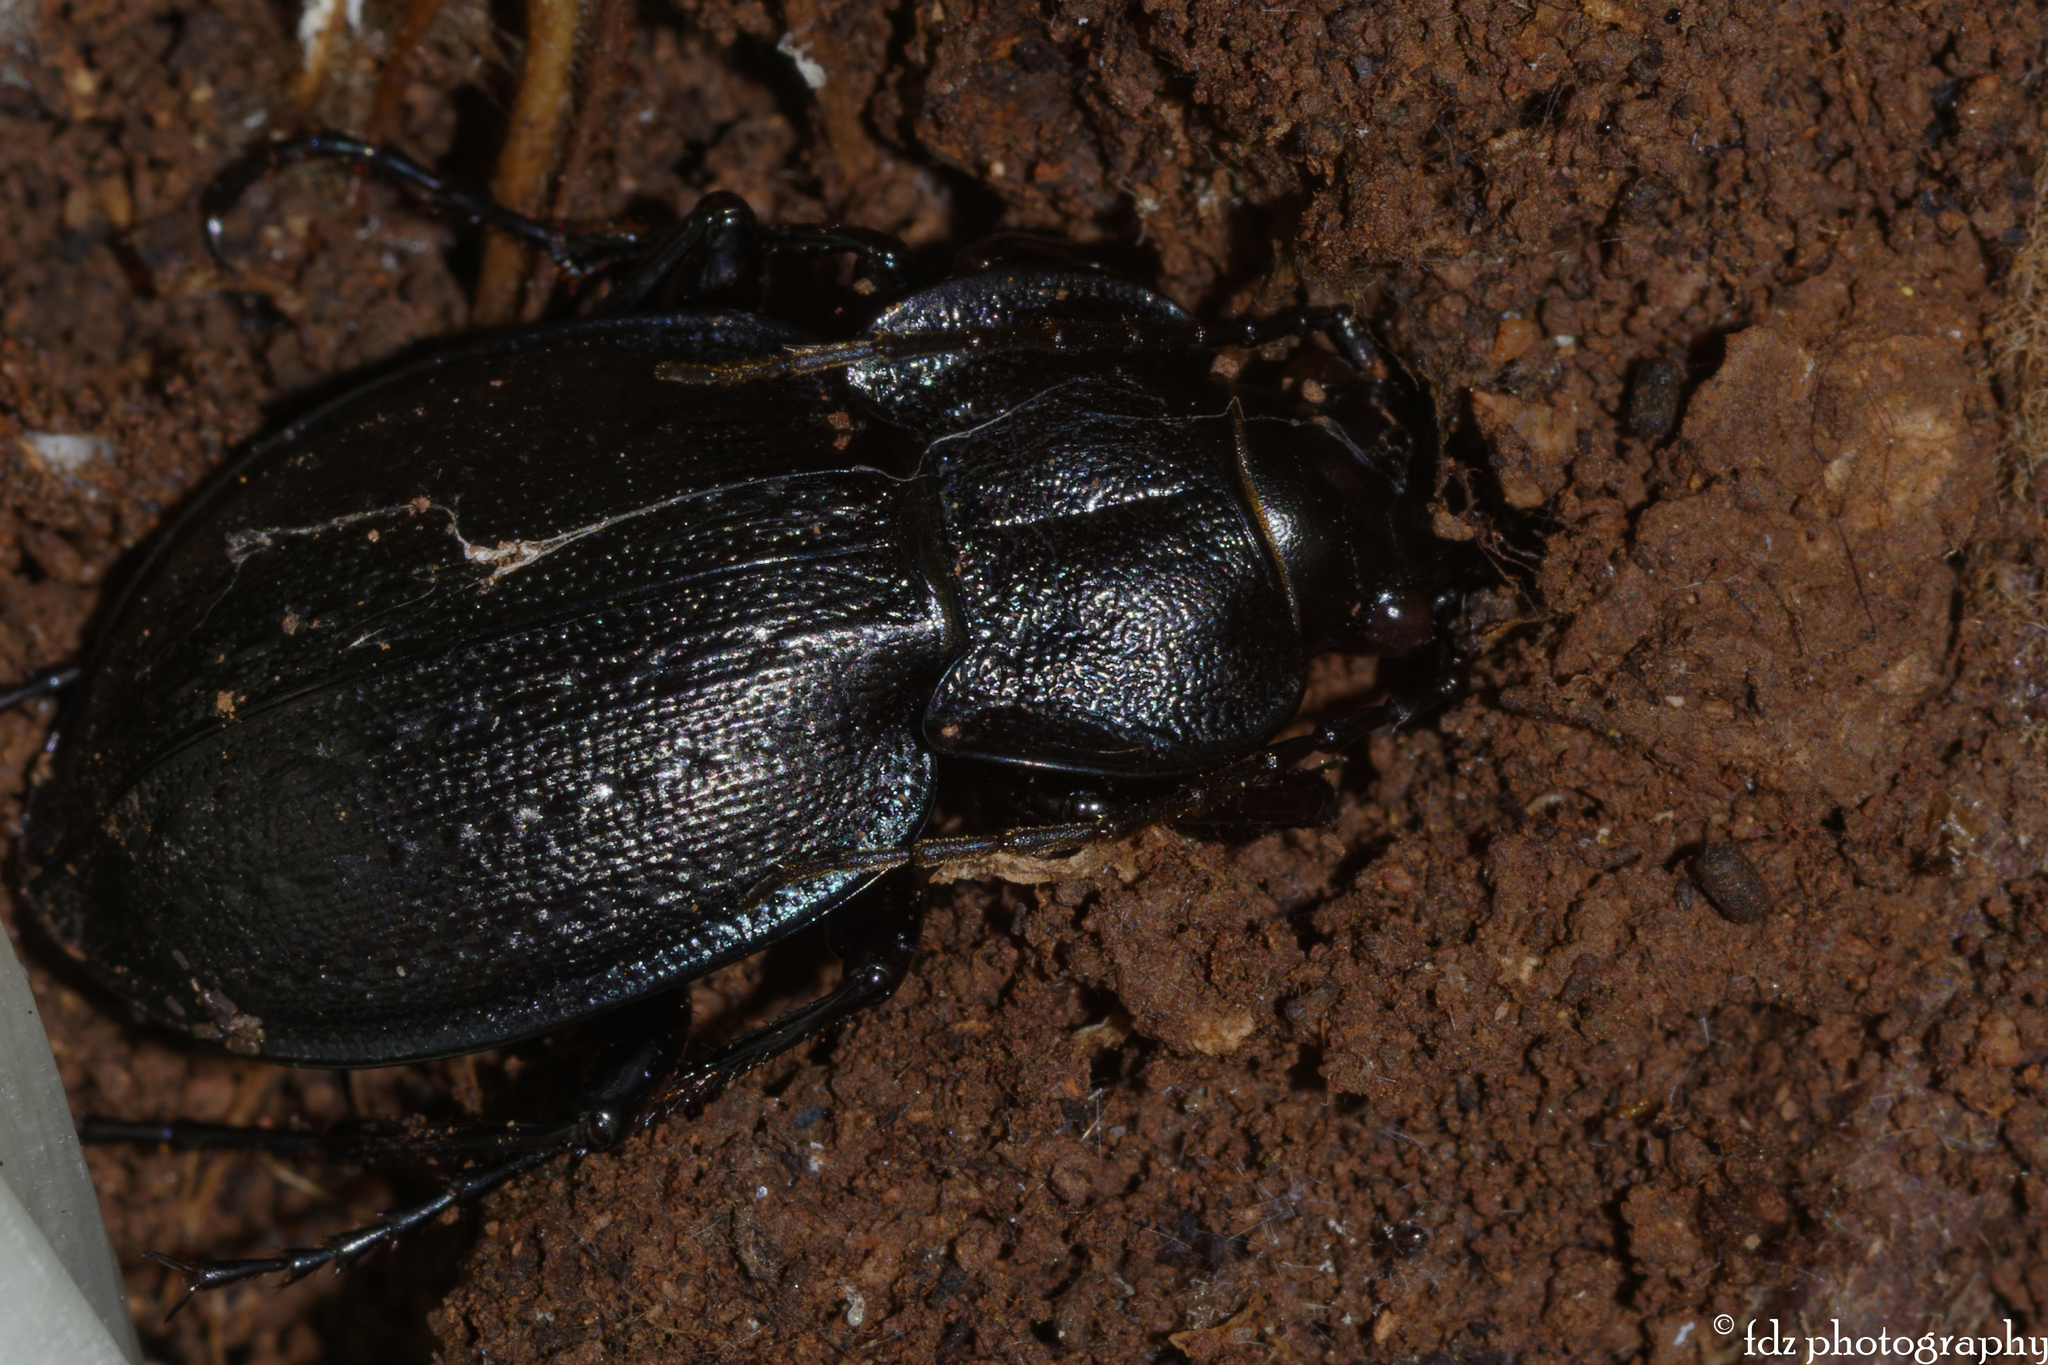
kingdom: Animalia
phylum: Arthropoda
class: Insecta
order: Coleoptera
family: Carabidae
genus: Carabus
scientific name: Carabus lusitanicus
